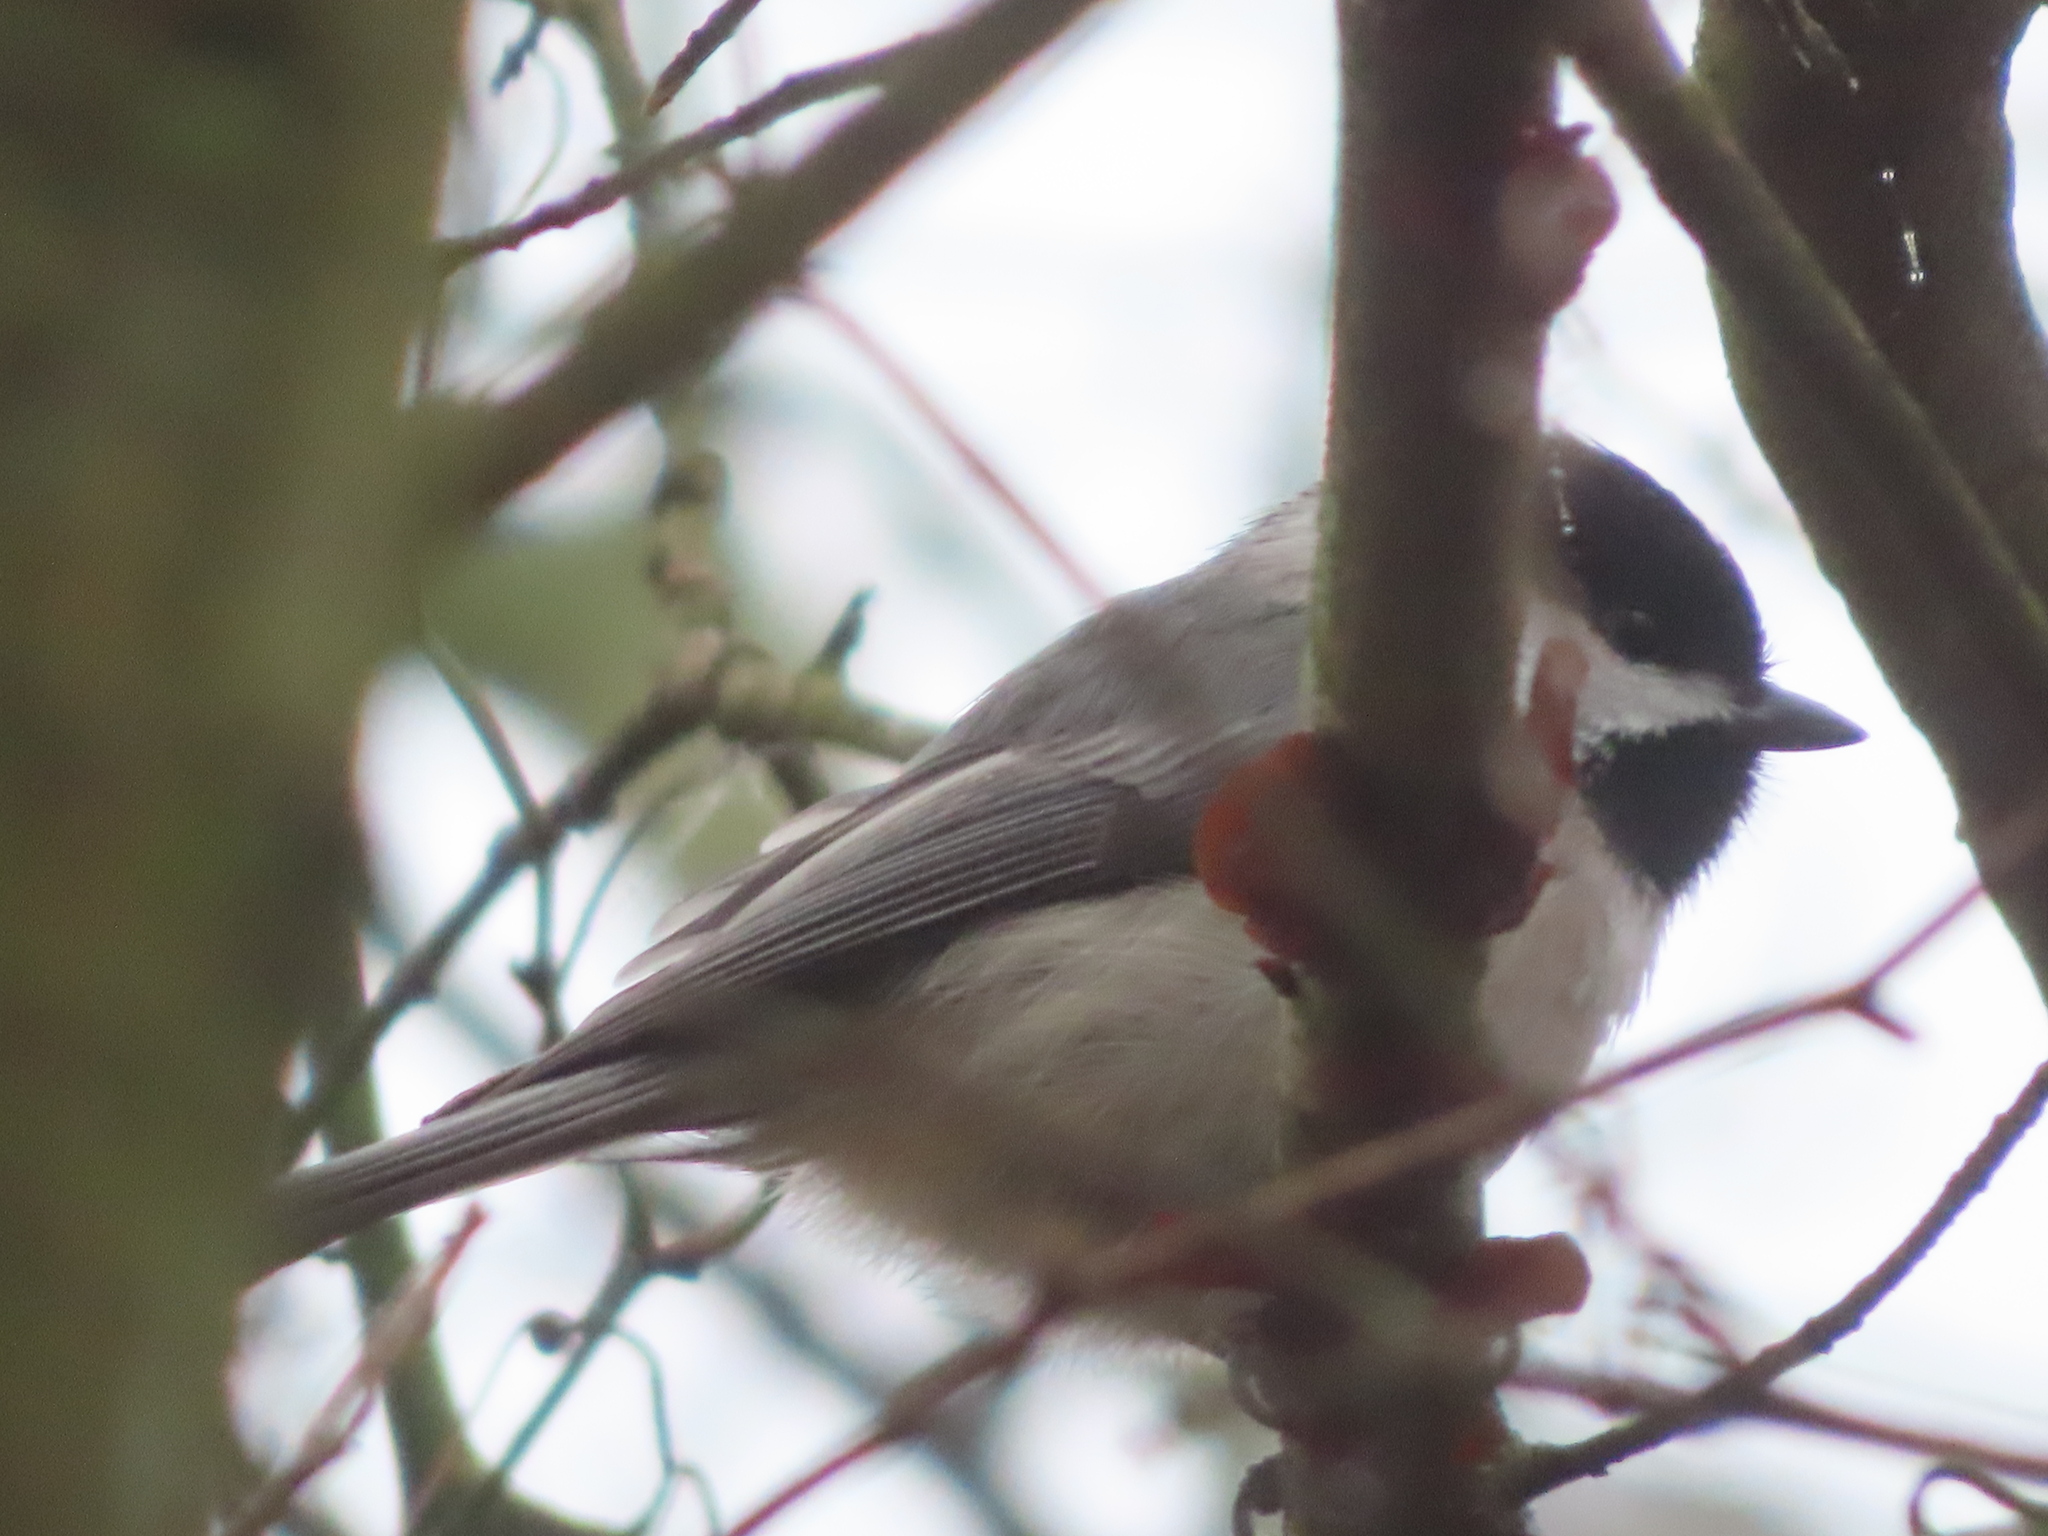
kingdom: Animalia
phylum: Chordata
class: Aves
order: Passeriformes
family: Paridae
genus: Poecile
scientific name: Poecile carolinensis
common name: Carolina chickadee
